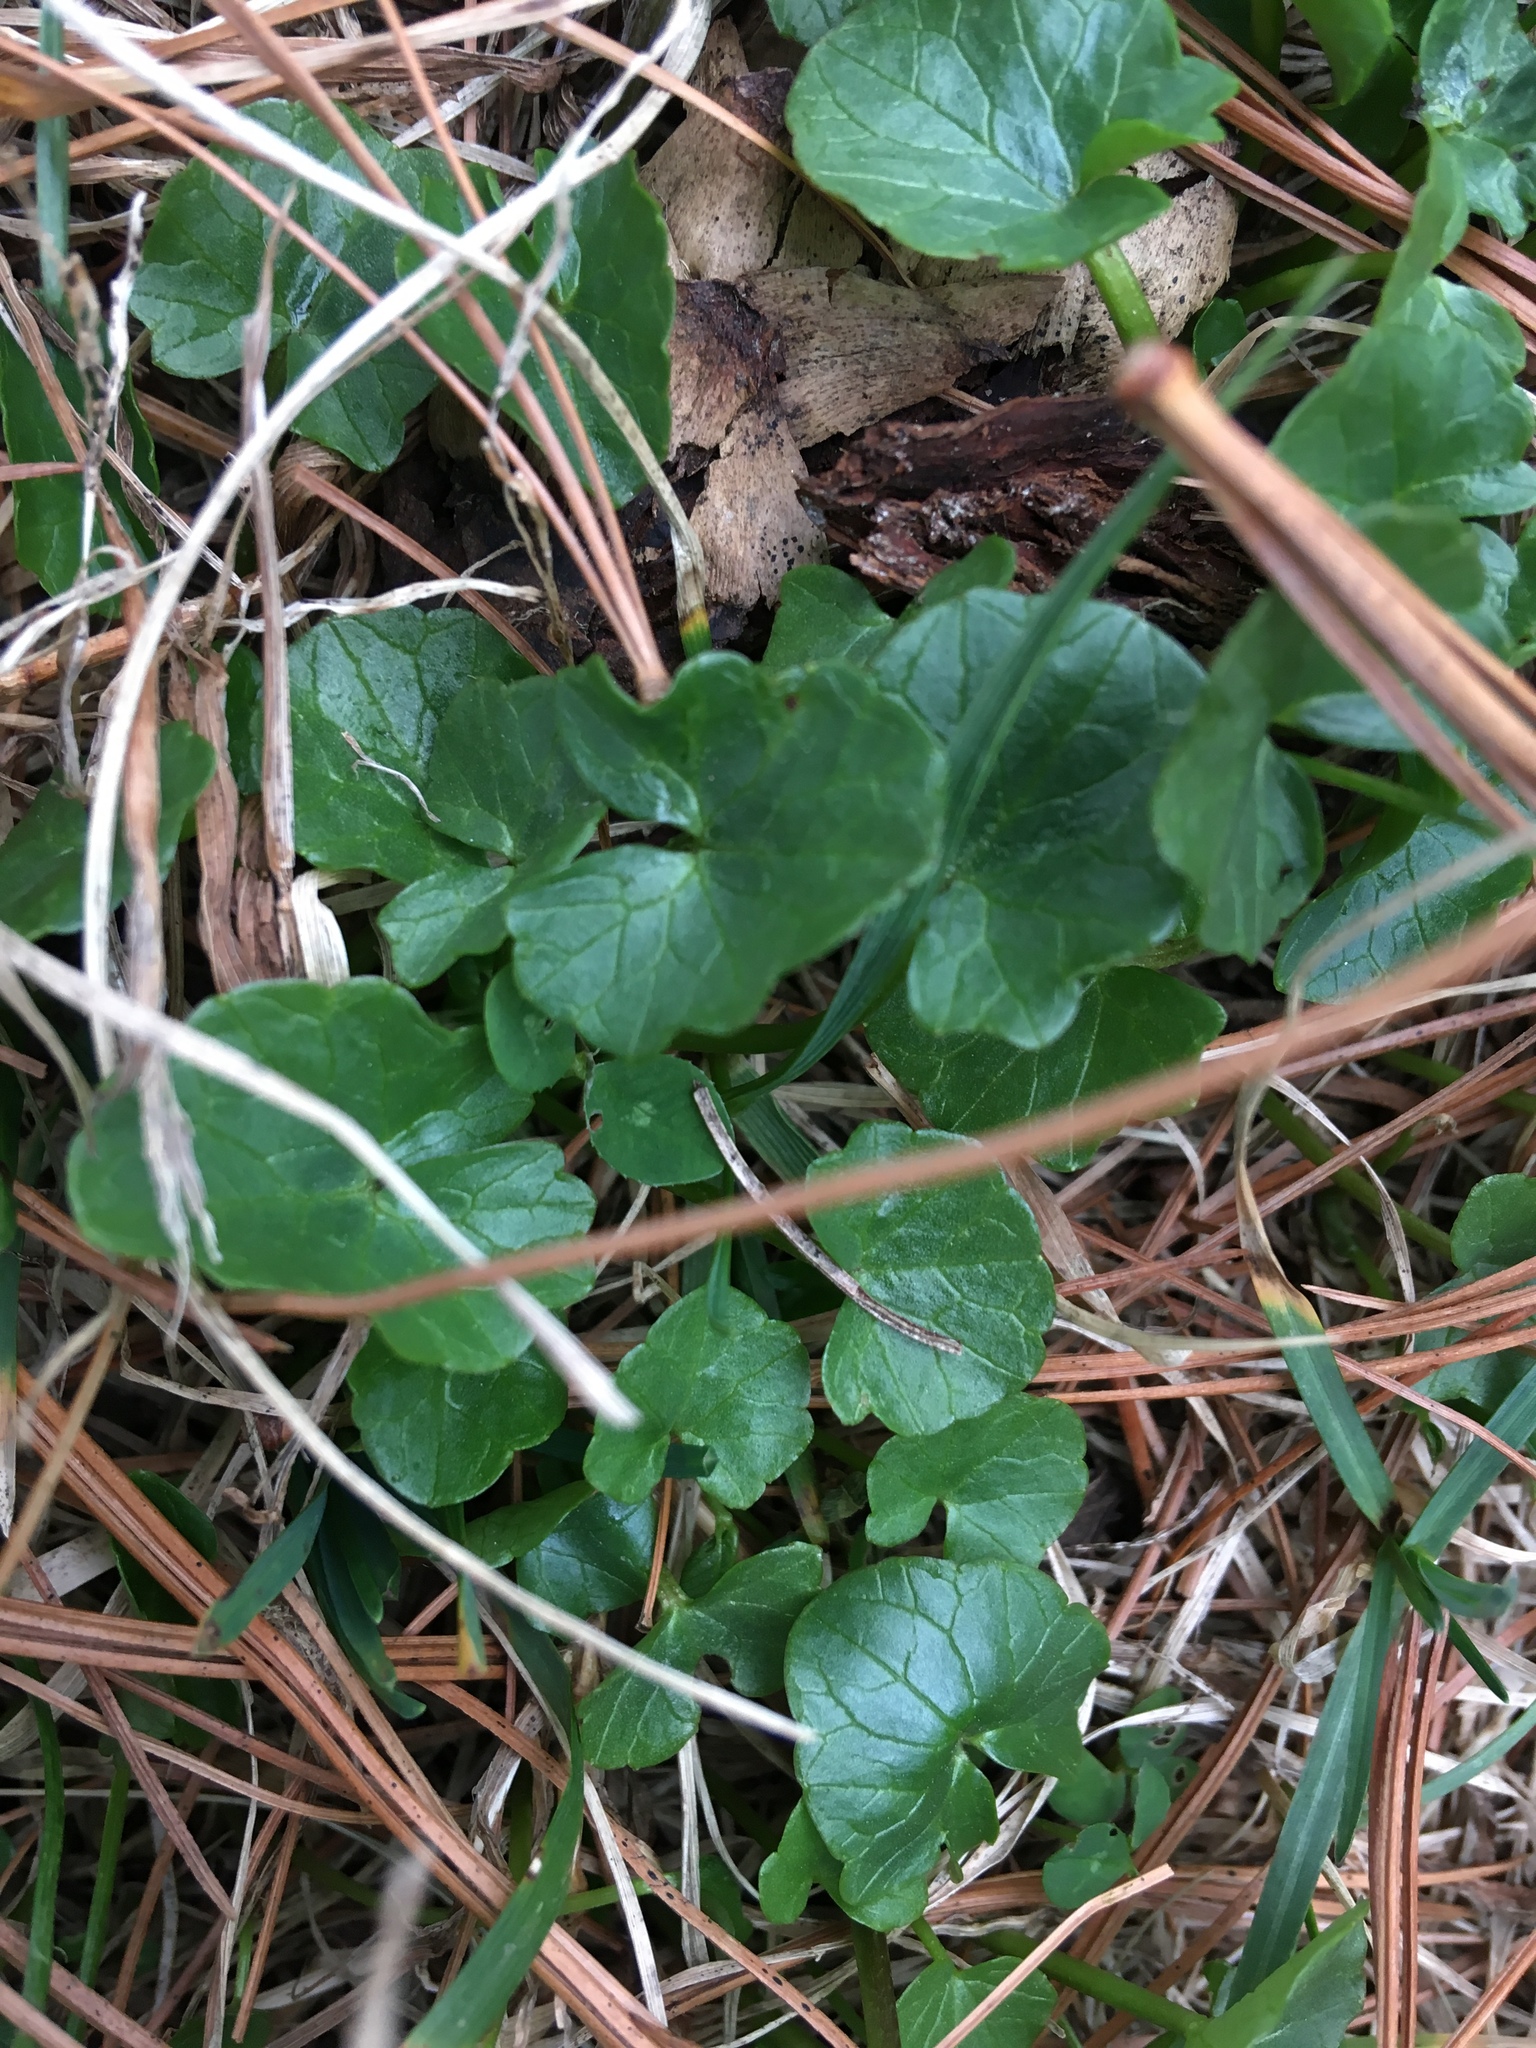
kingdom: Plantae
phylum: Tracheophyta
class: Magnoliopsida
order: Ranunculales
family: Ranunculaceae
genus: Ficaria
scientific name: Ficaria verna
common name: Lesser celandine
